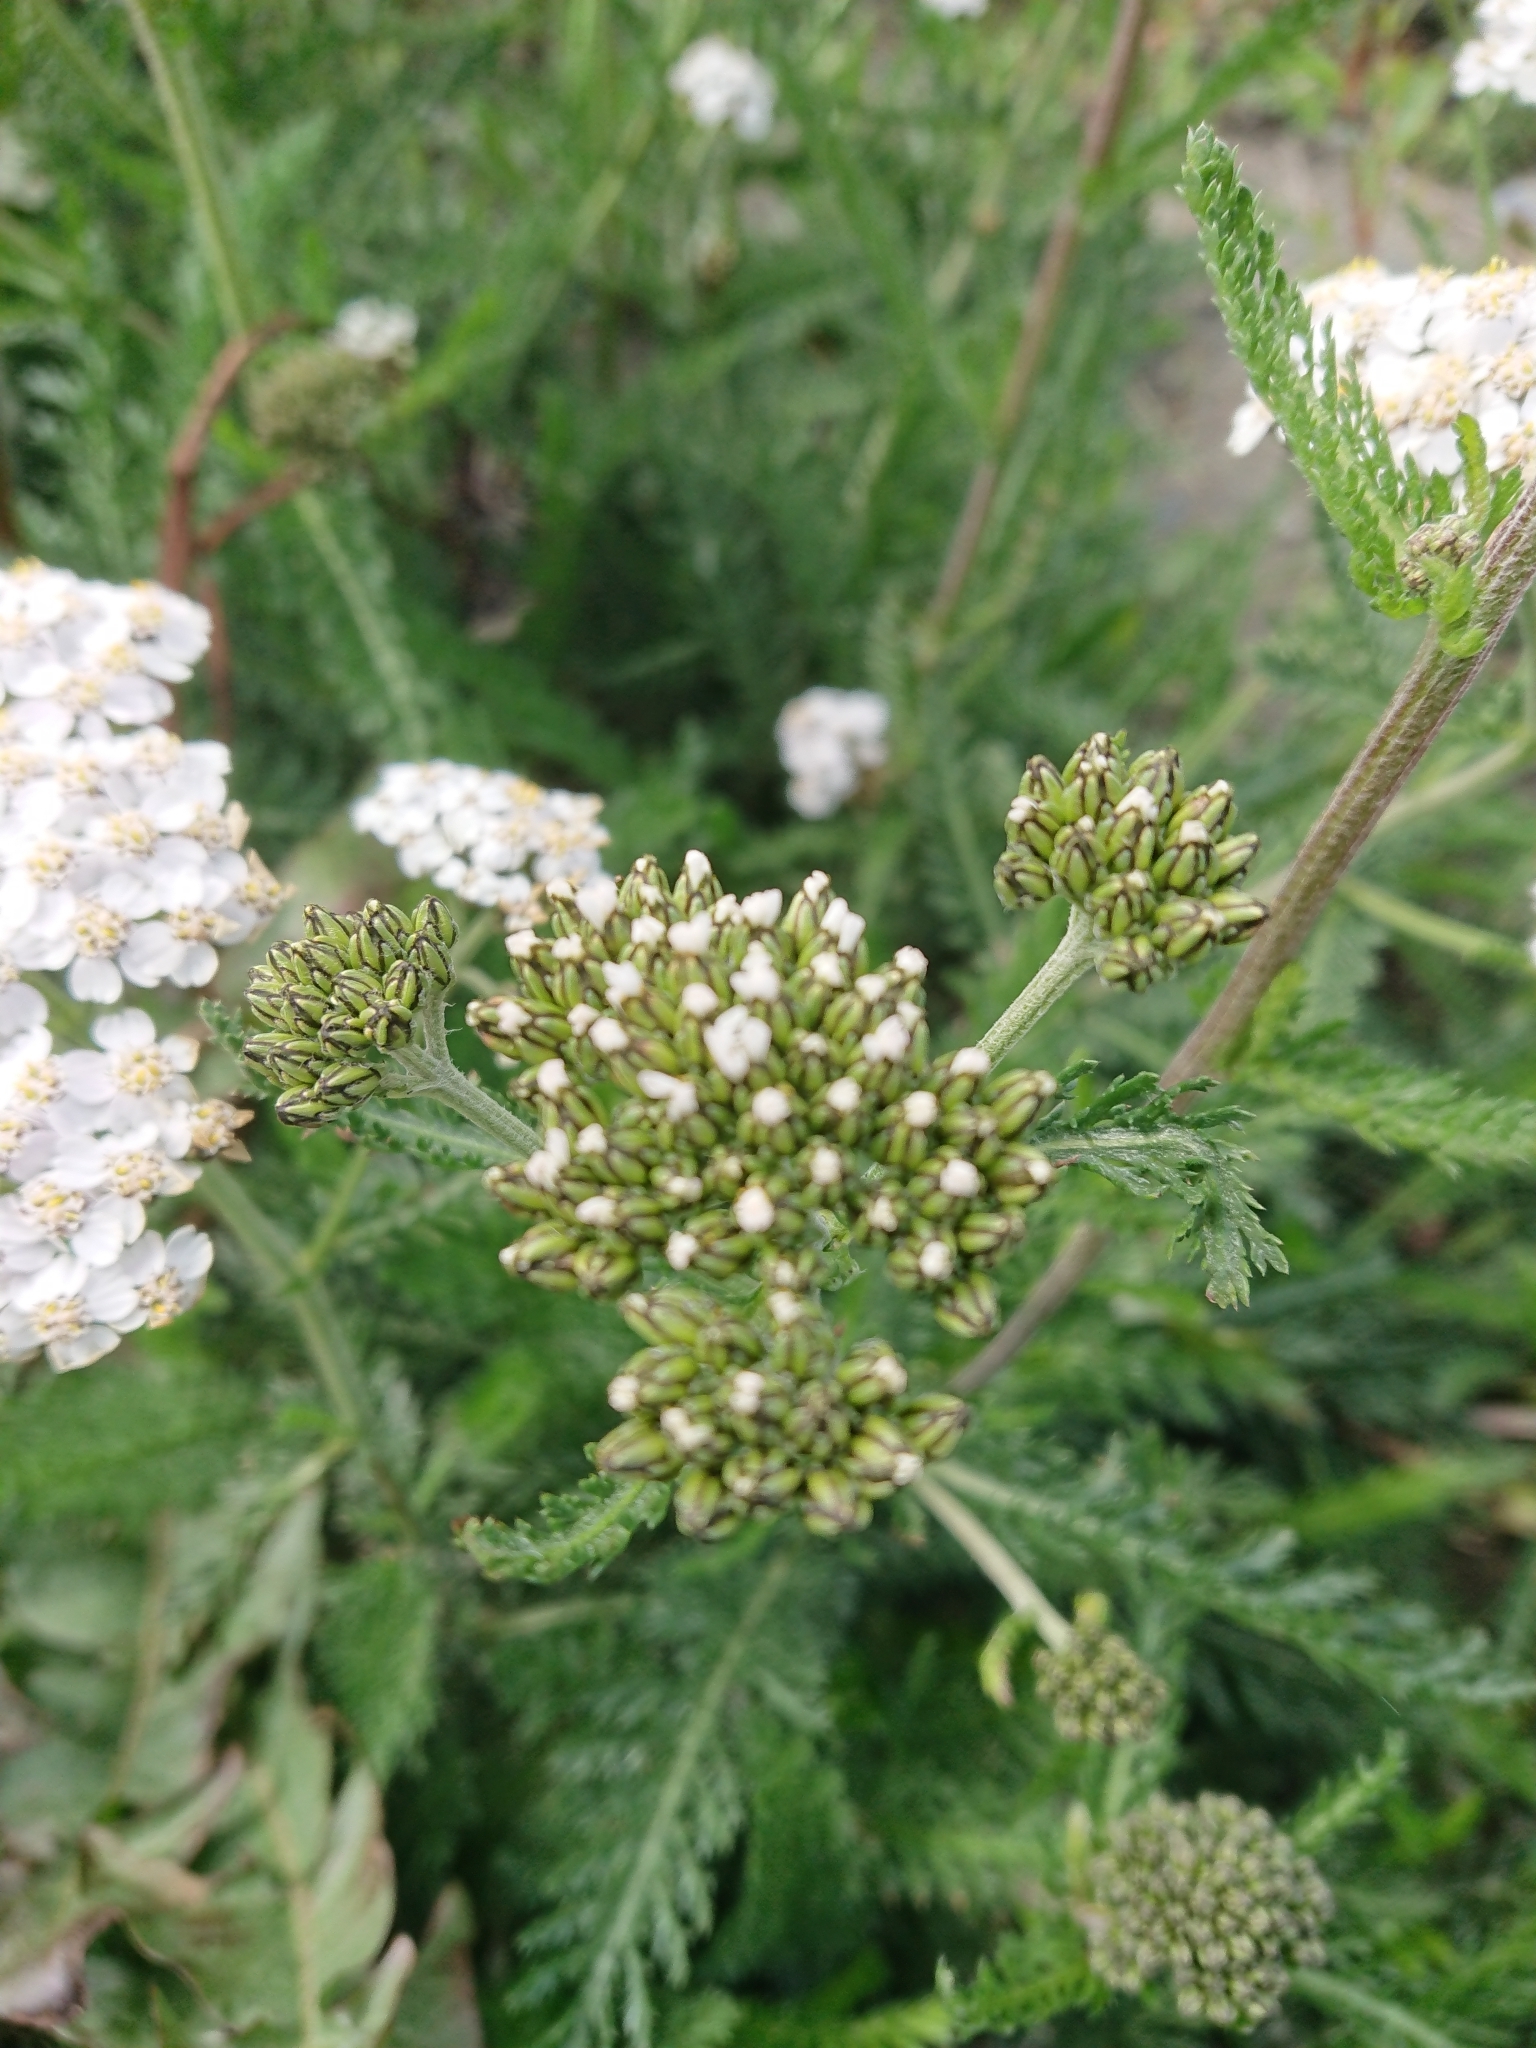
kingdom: Plantae
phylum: Tracheophyta
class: Magnoliopsida
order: Asterales
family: Asteraceae
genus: Achillea
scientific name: Achillea millefolium
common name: Yarrow
